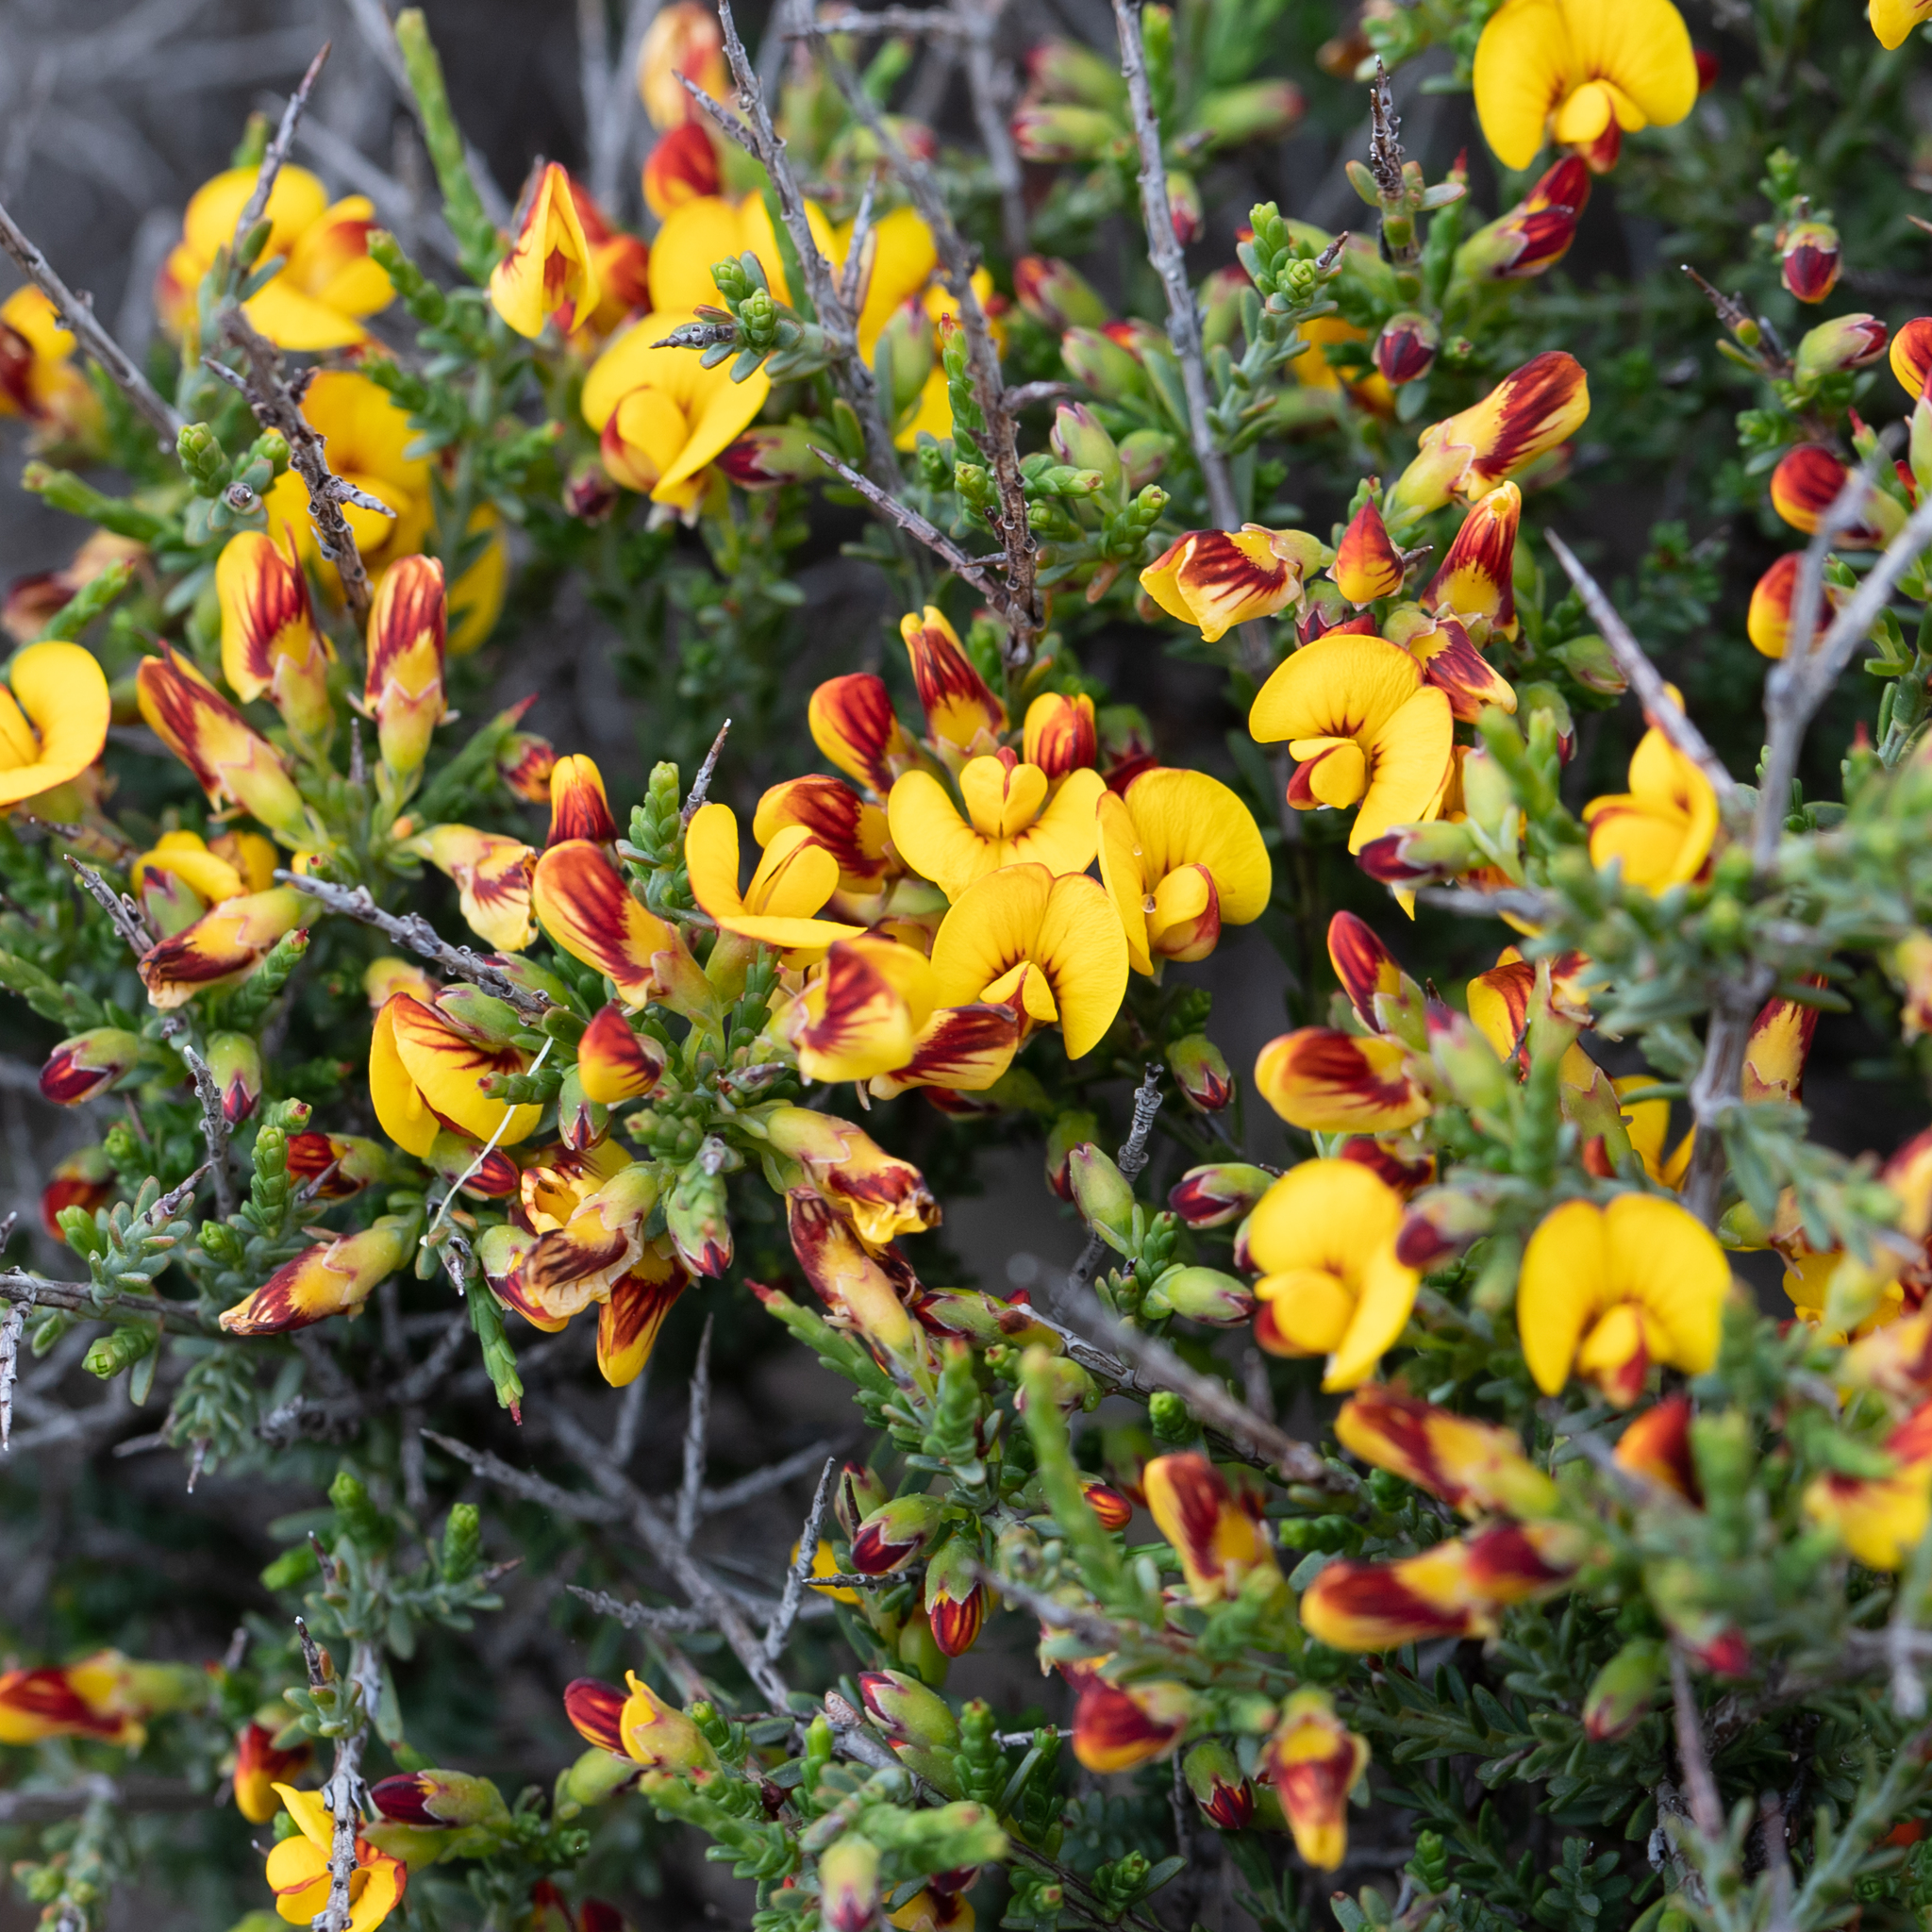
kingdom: Plantae
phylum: Tracheophyta
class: Magnoliopsida
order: Fabales
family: Fabaceae
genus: Eutaxia
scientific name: Eutaxia microphylla
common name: Mallee bush-pea
